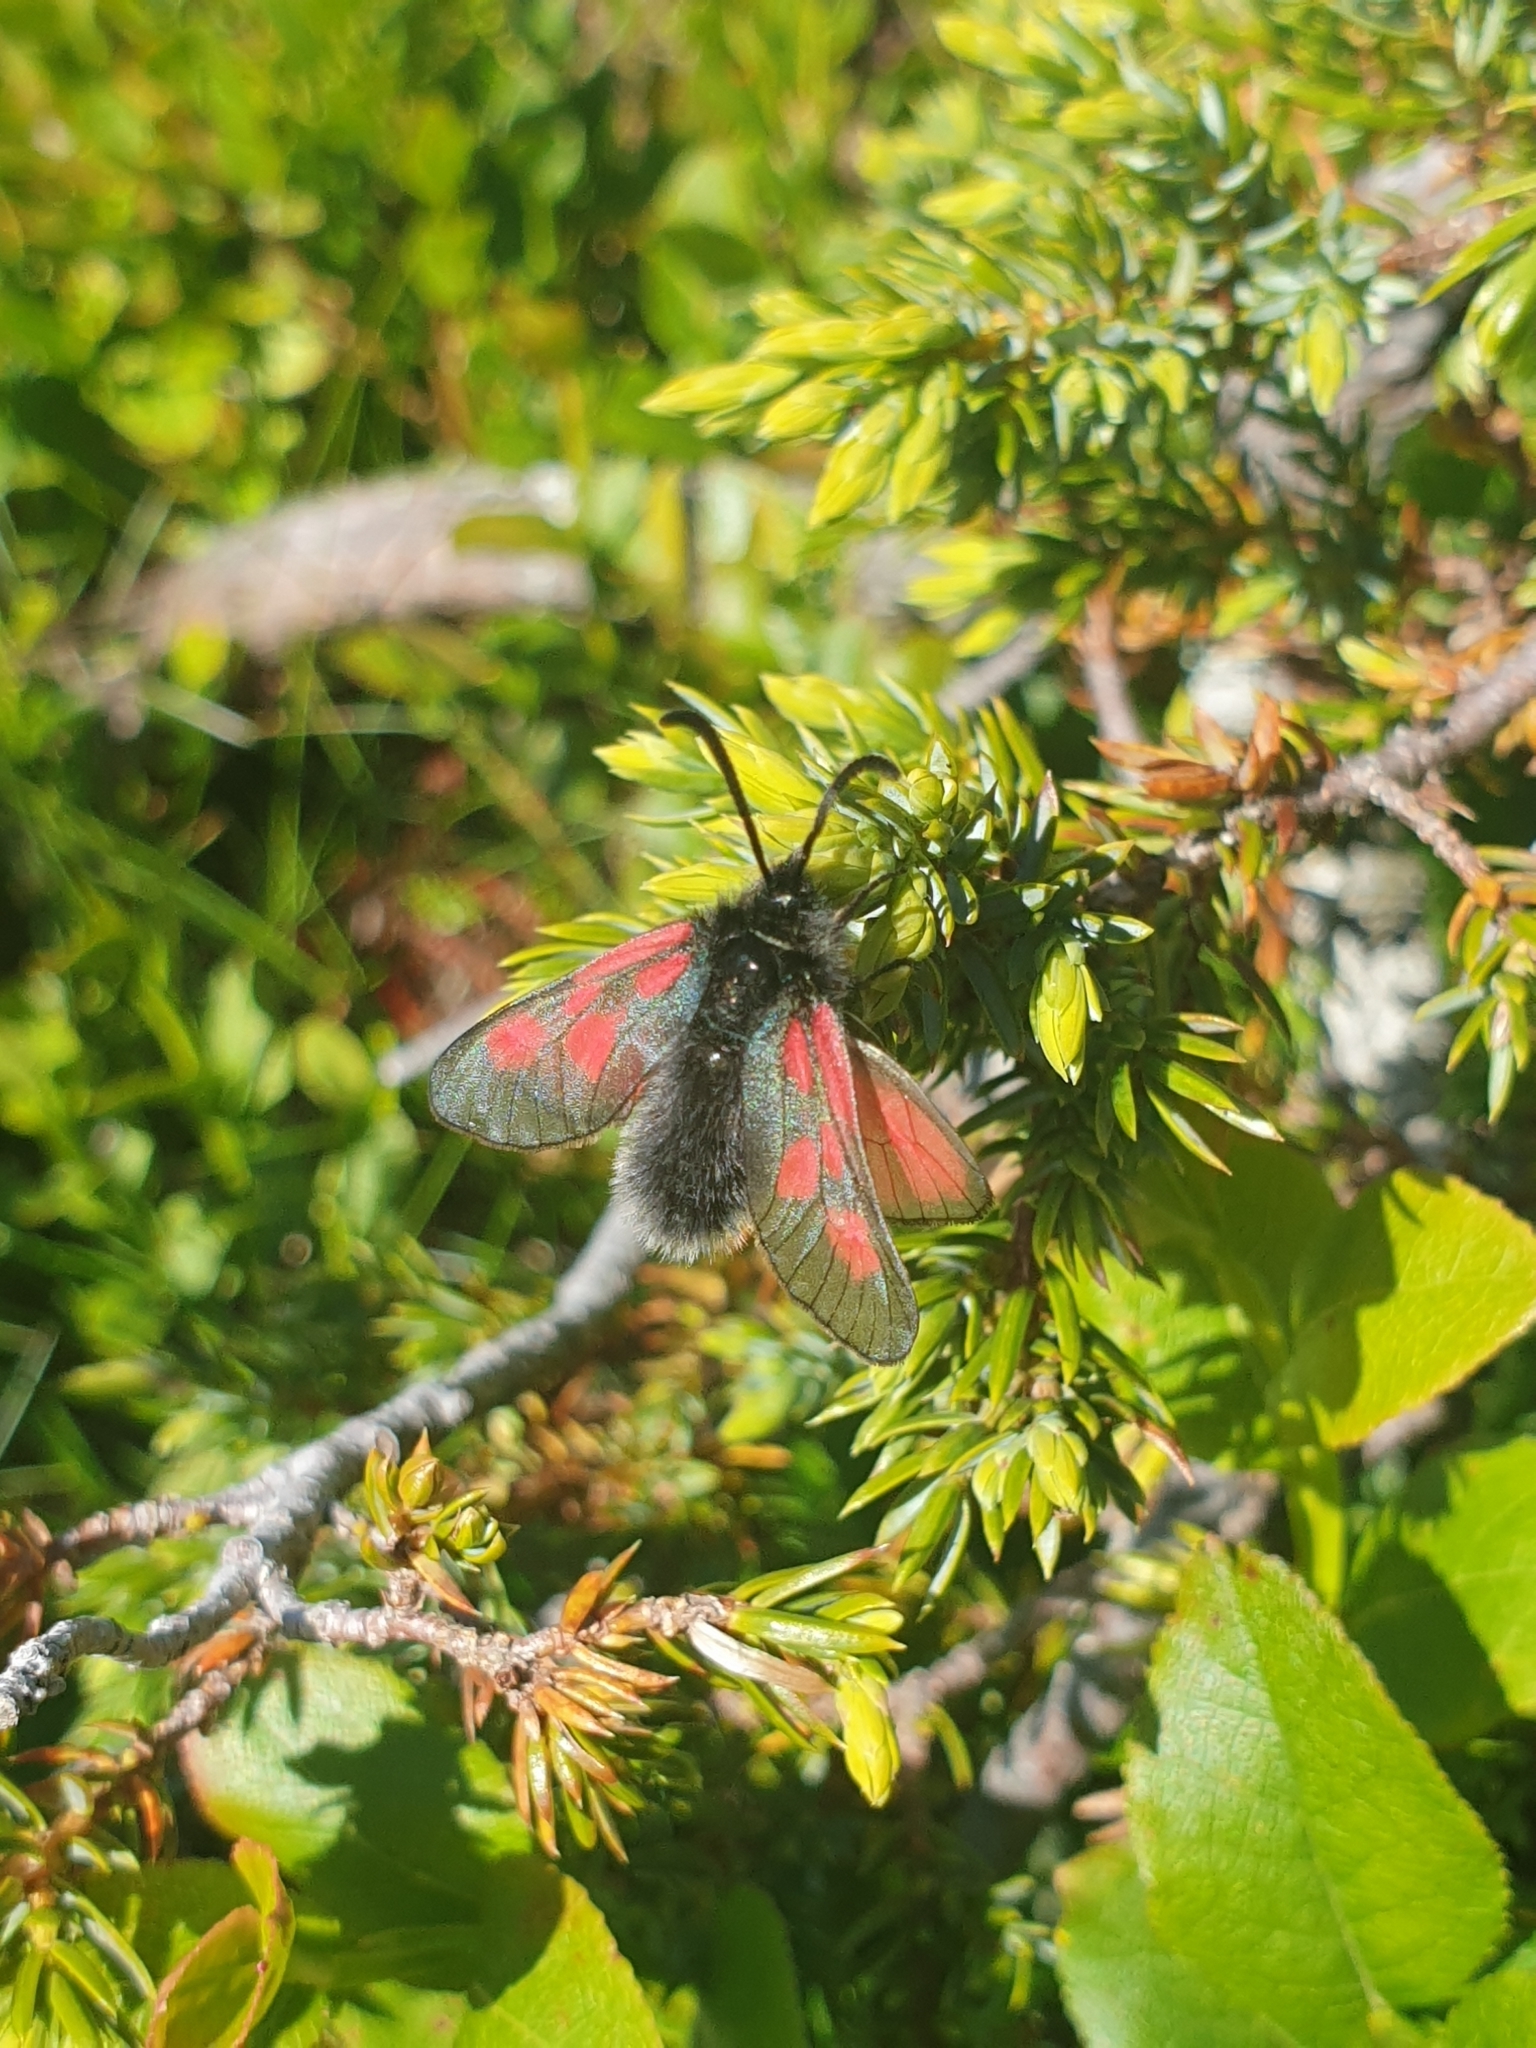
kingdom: Animalia
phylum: Arthropoda
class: Insecta
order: Lepidoptera
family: Zygaenidae
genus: Zygaena
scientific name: Zygaena exulans
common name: Scotch burnet
